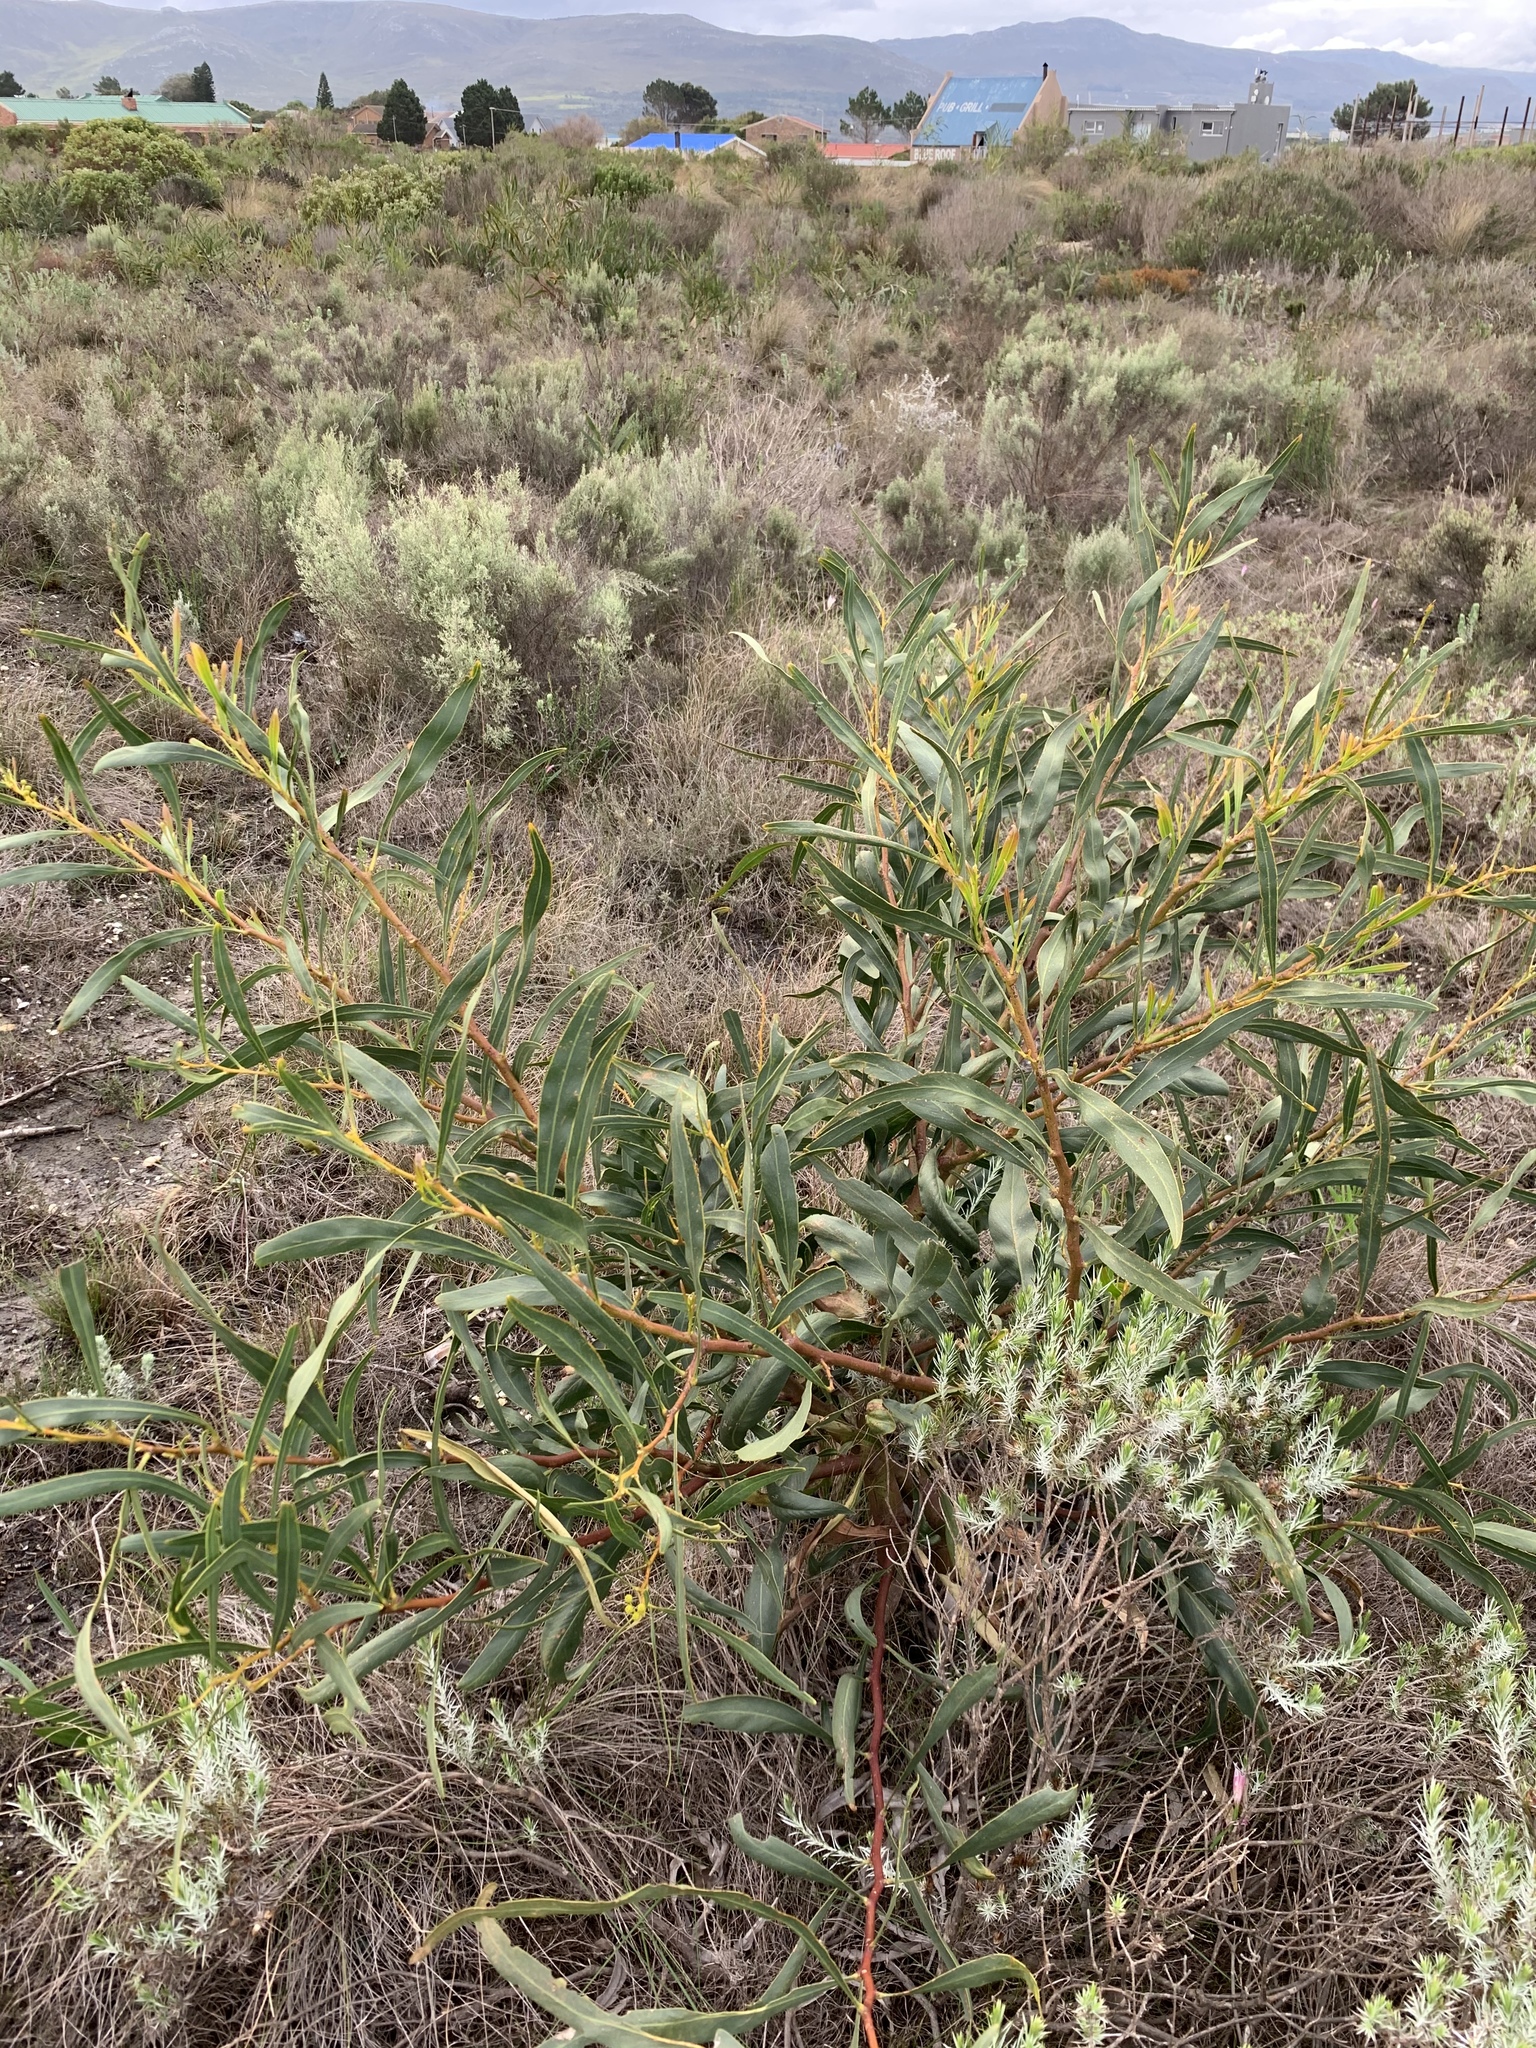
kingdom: Plantae
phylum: Tracheophyta
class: Magnoliopsida
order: Fabales
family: Fabaceae
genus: Acacia
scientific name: Acacia saligna
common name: Orange wattle
